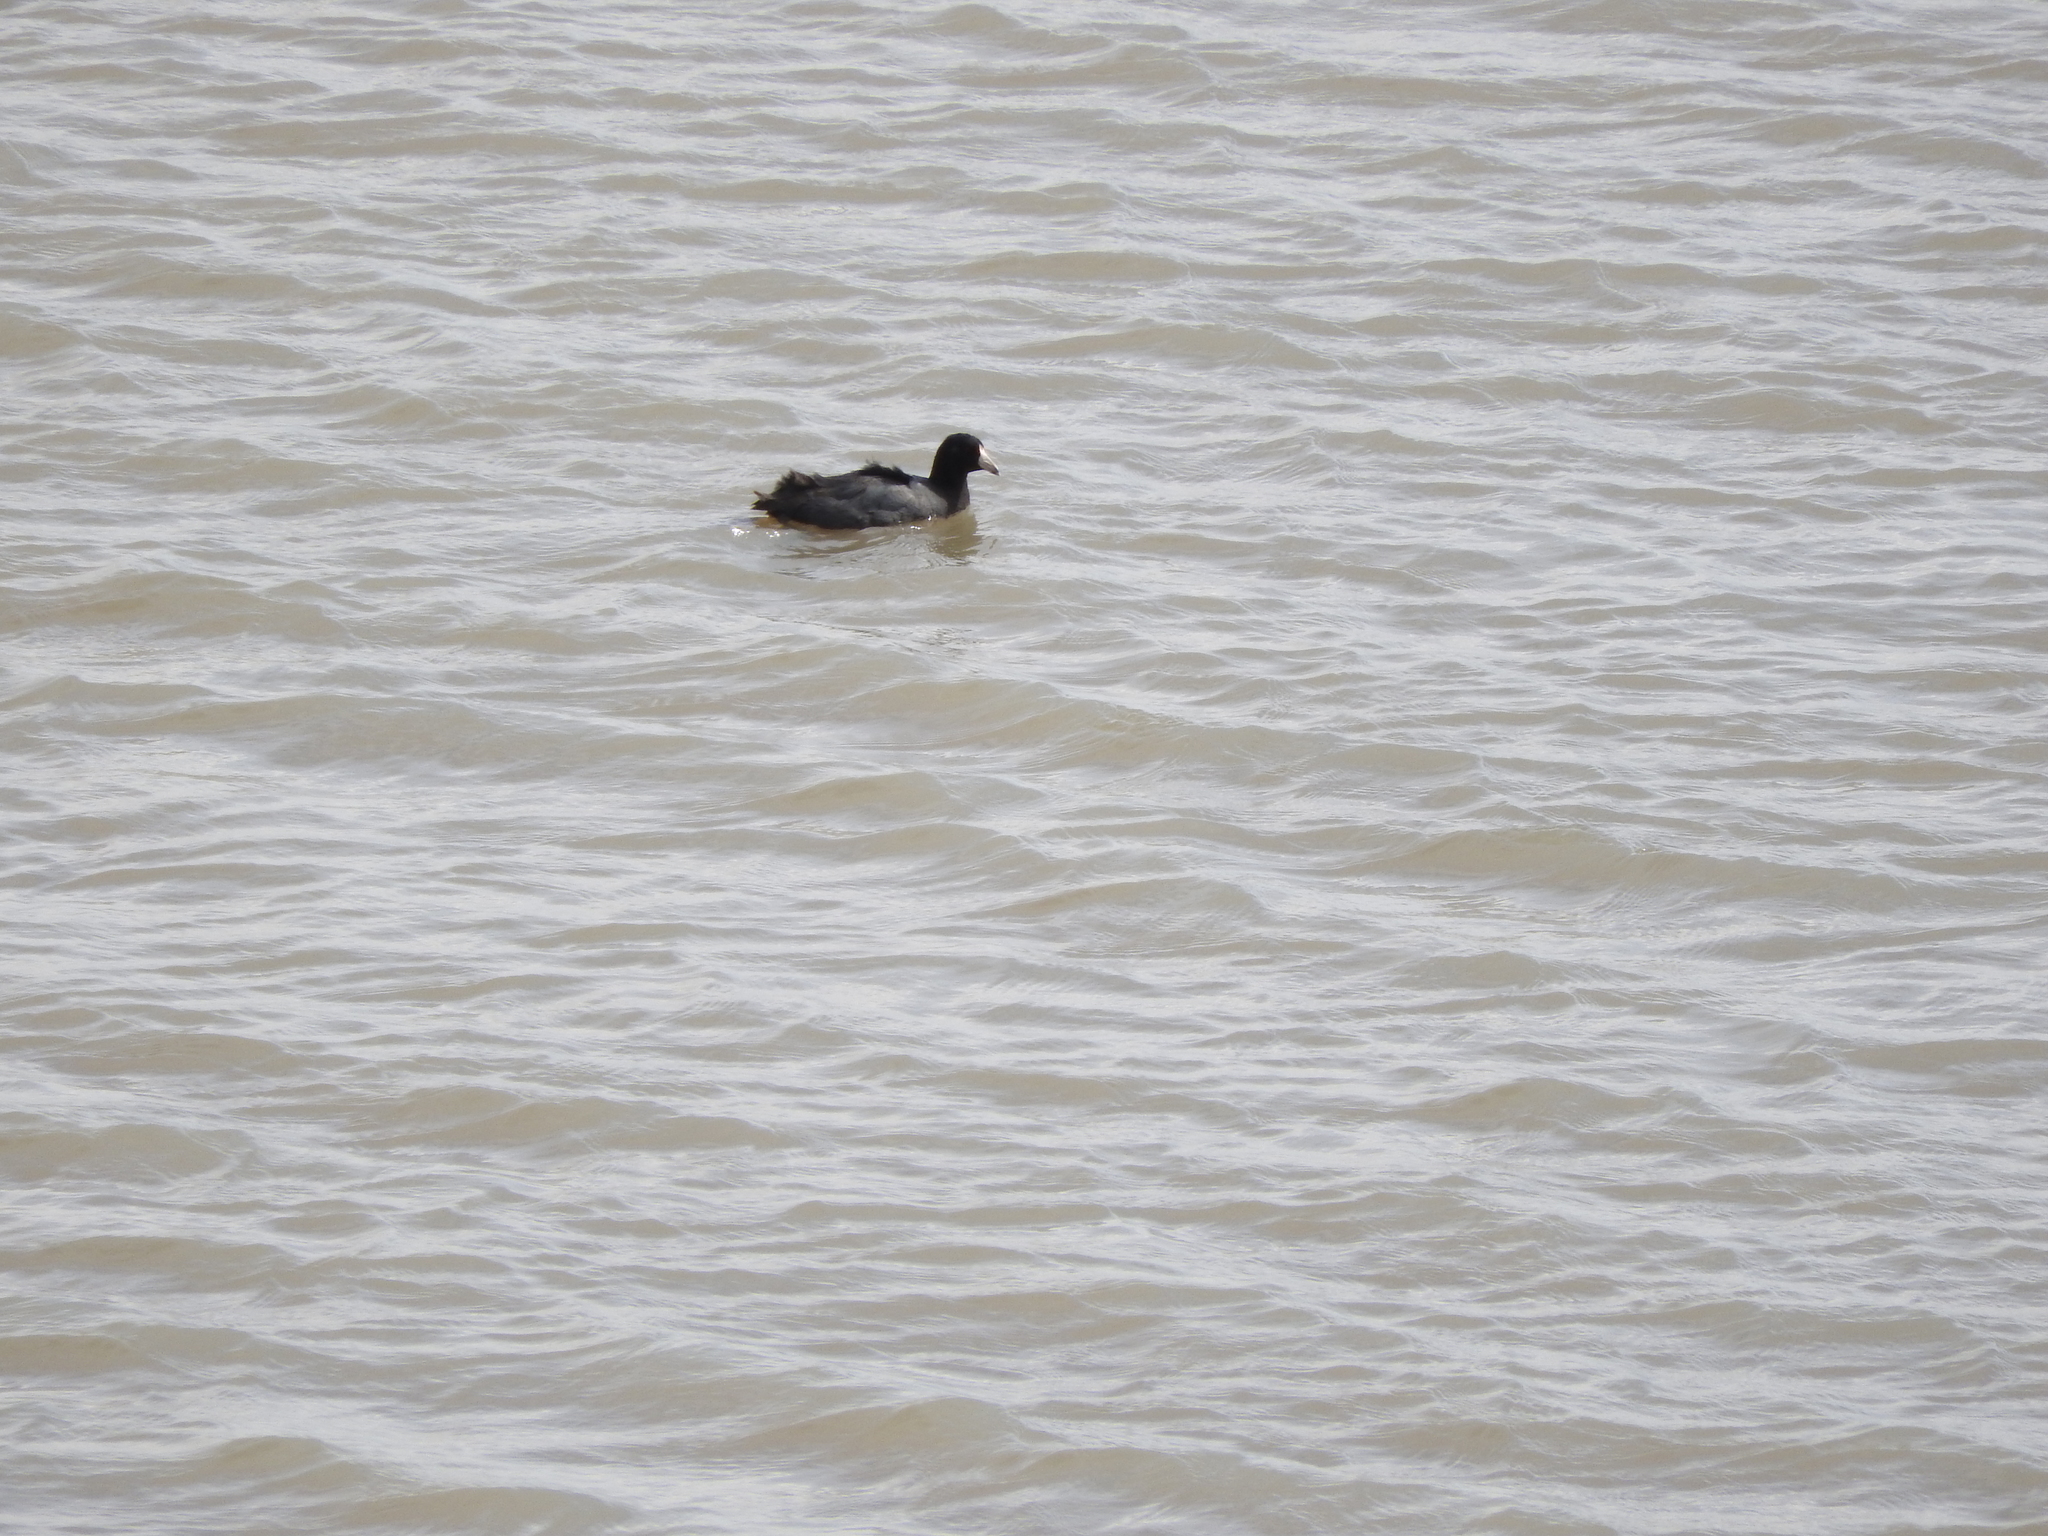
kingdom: Animalia
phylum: Chordata
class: Aves
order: Gruiformes
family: Rallidae
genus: Fulica
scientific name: Fulica americana
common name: American coot
